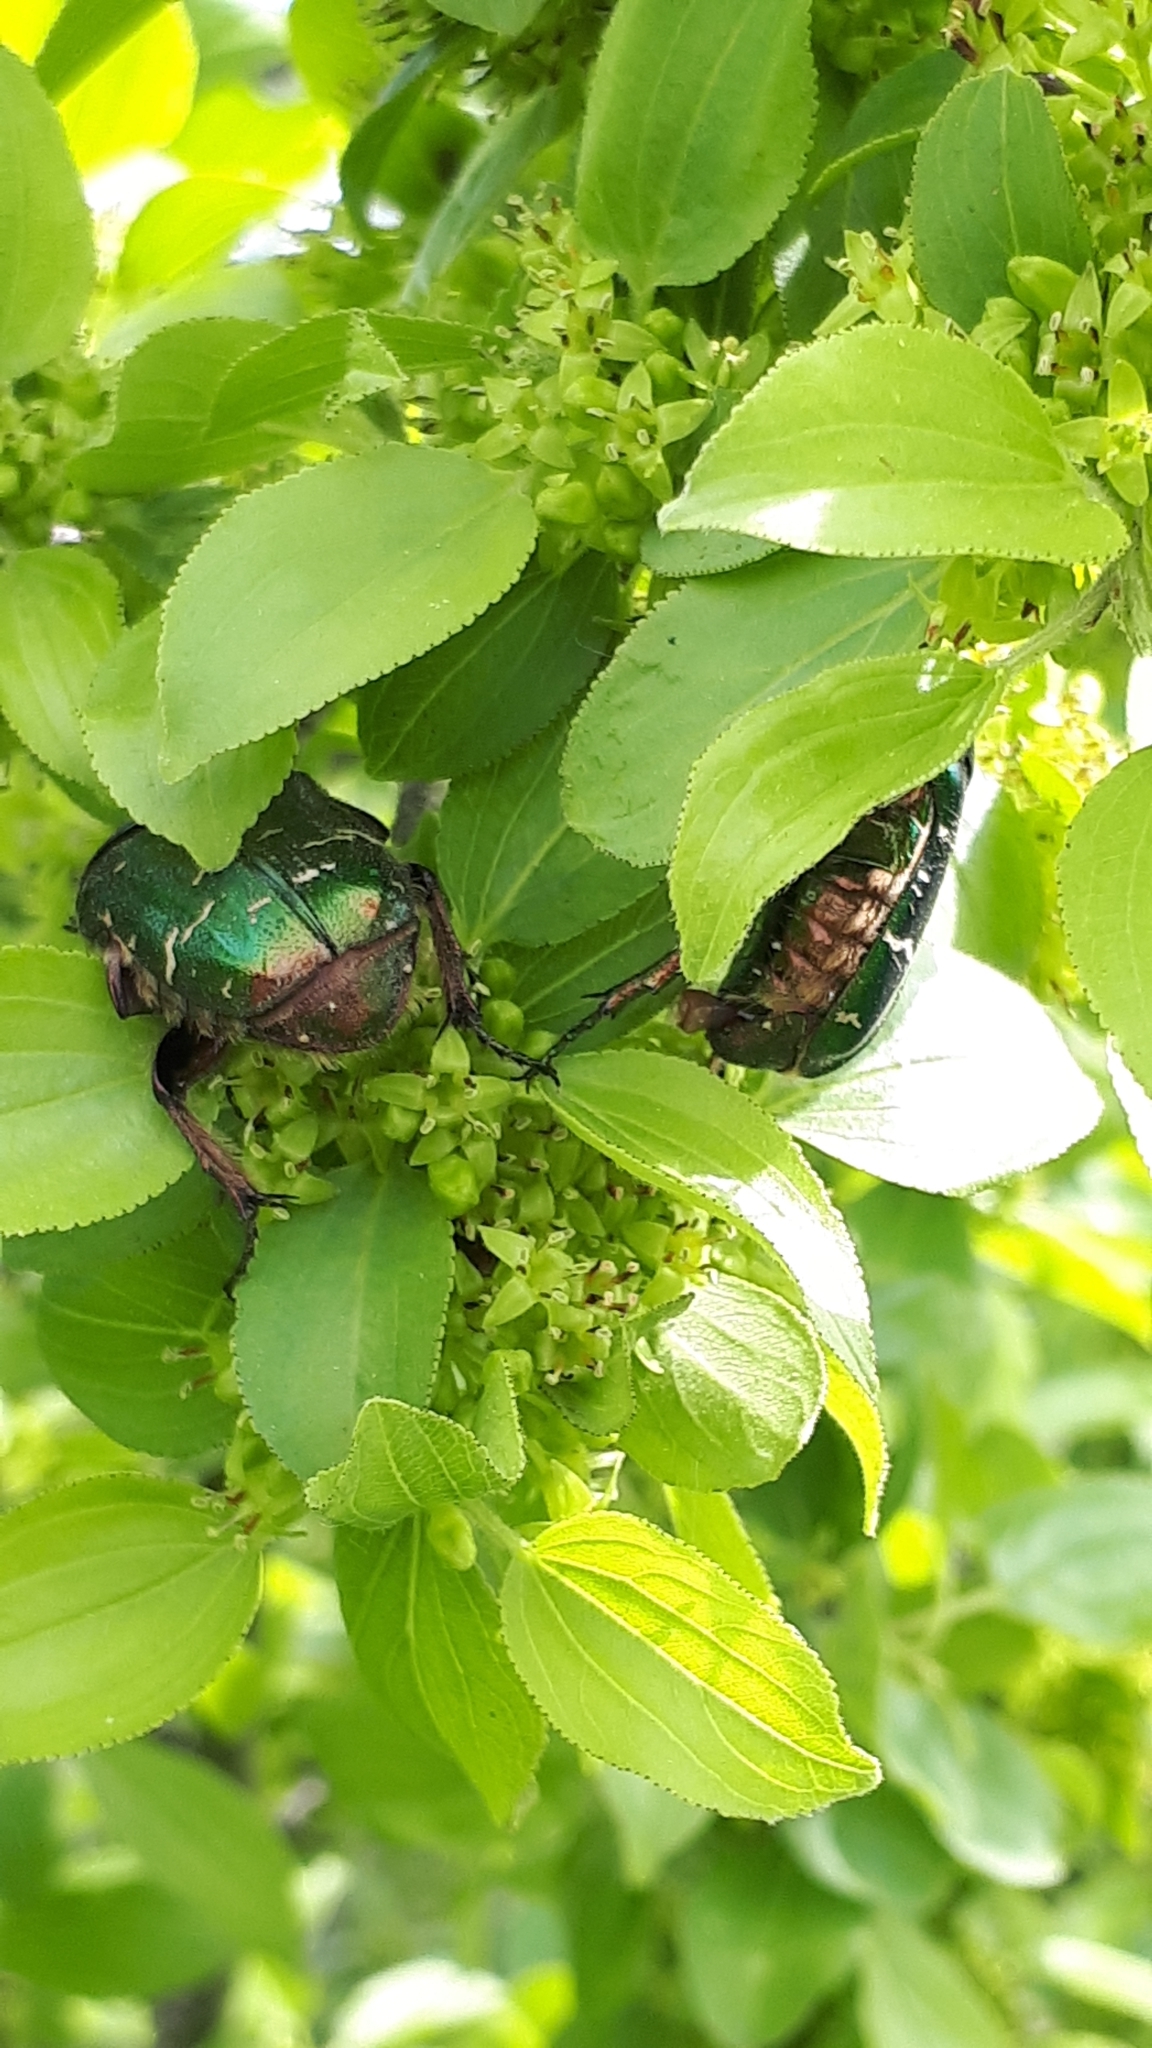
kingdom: Animalia
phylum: Arthropoda
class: Insecta
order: Coleoptera
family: Scarabaeidae
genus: Cetonia
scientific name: Cetonia aurata
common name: Rose chafer
